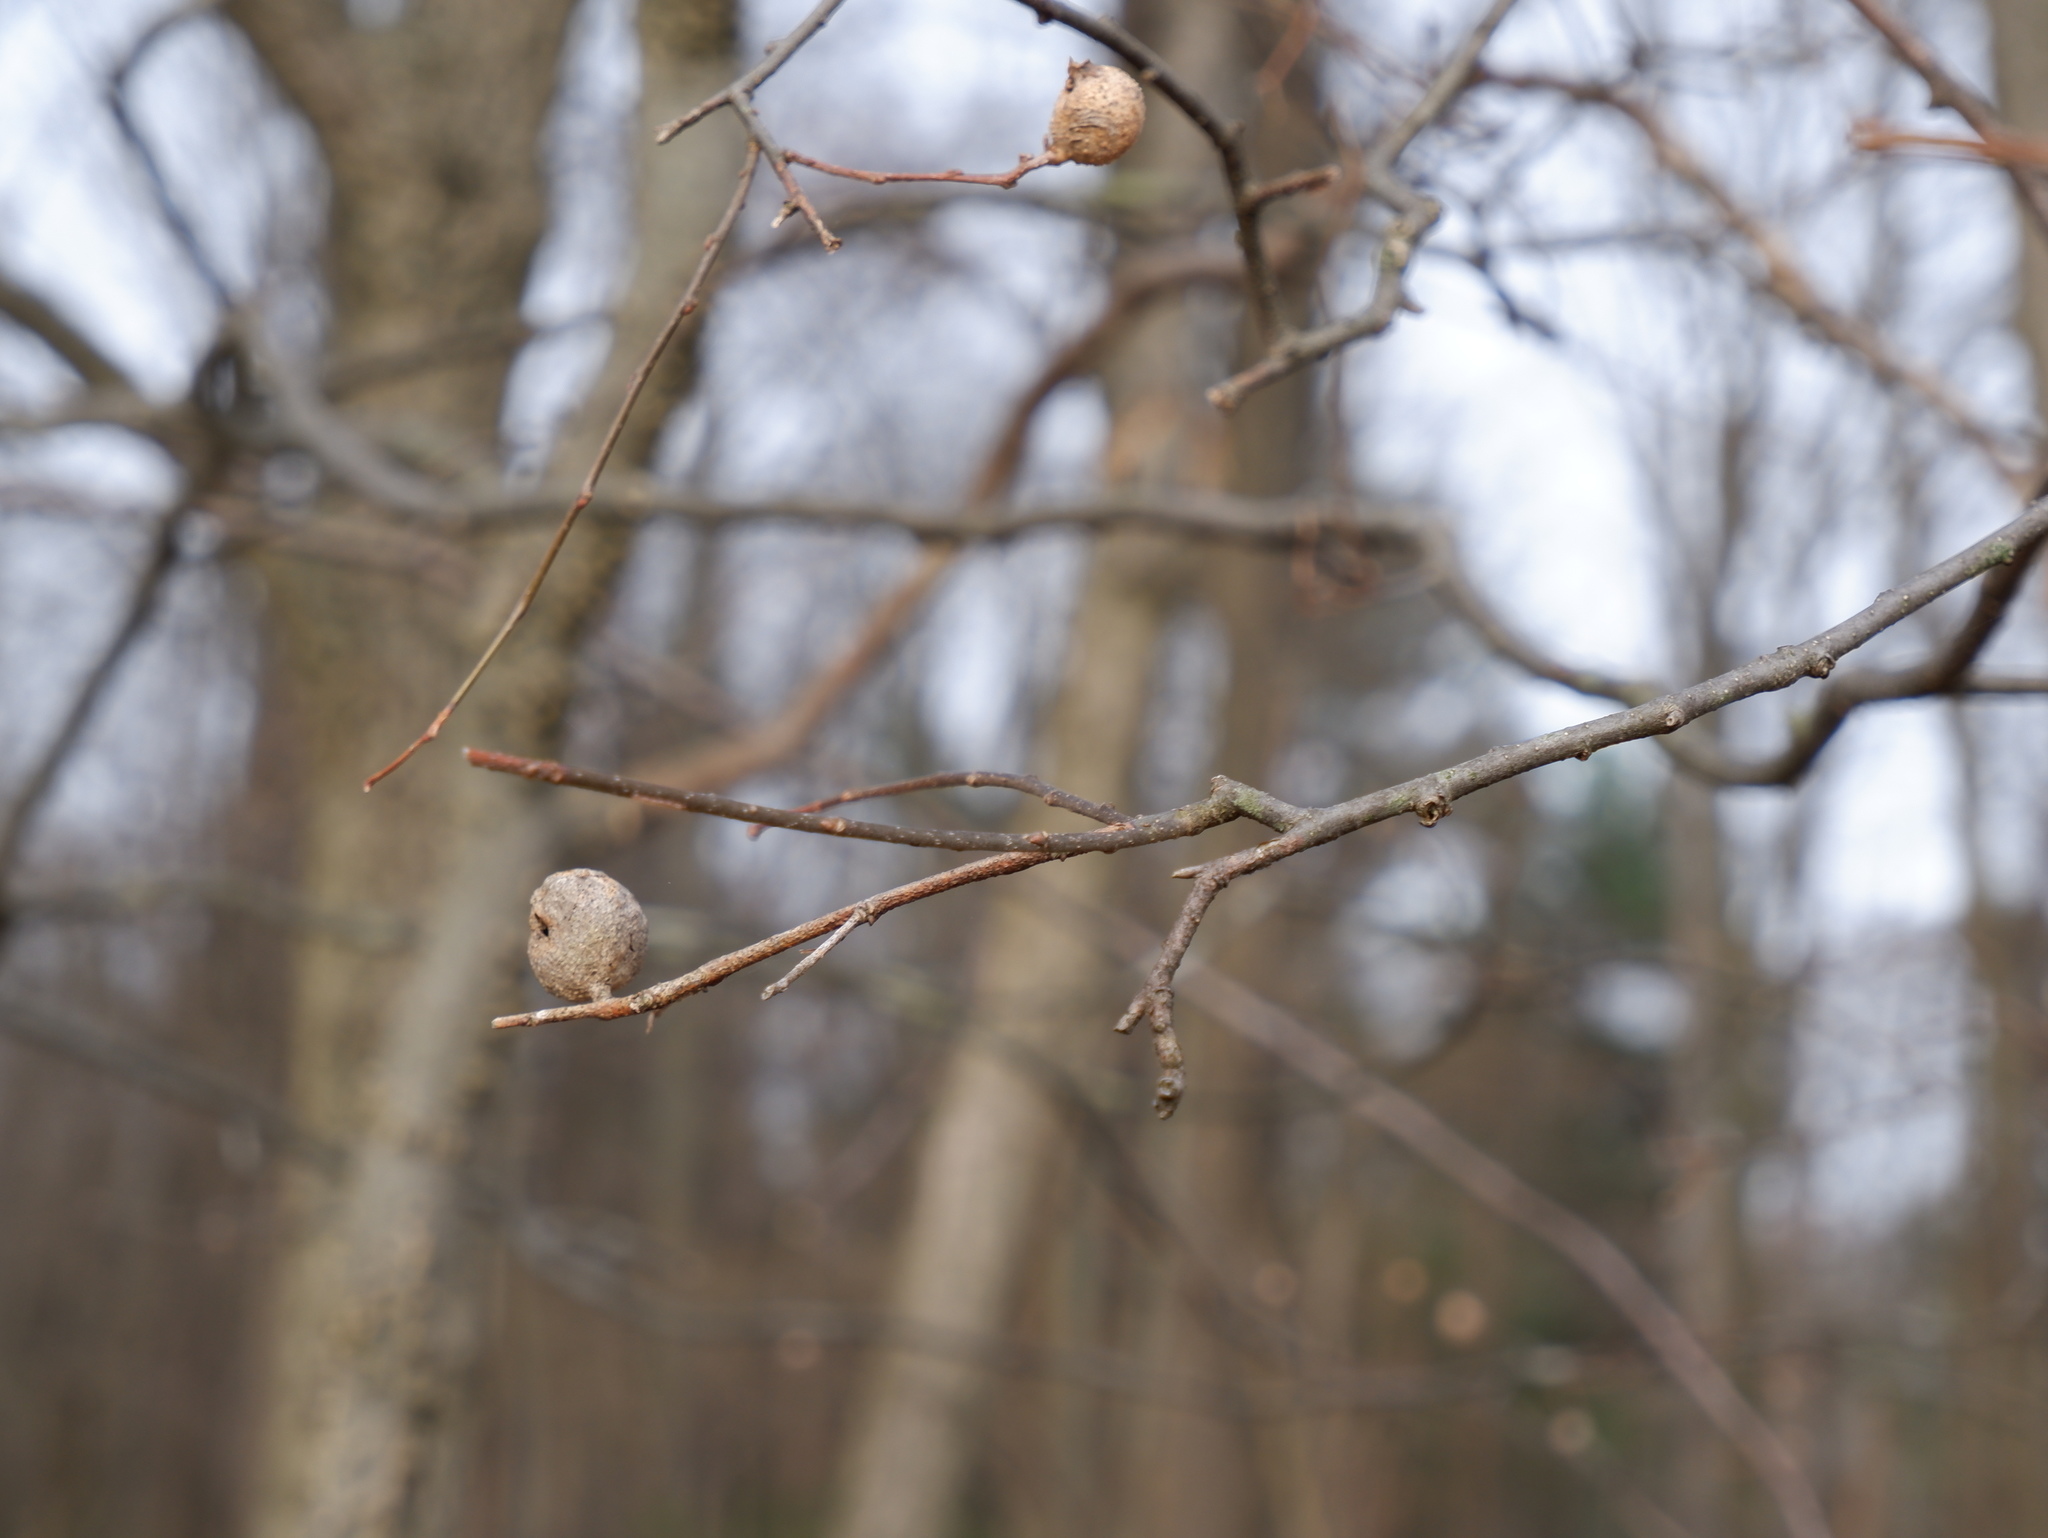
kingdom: Animalia
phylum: Arthropoda
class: Insecta
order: Hemiptera
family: Aphalaridae
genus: Pachypsylla
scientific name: Pachypsylla venusta
